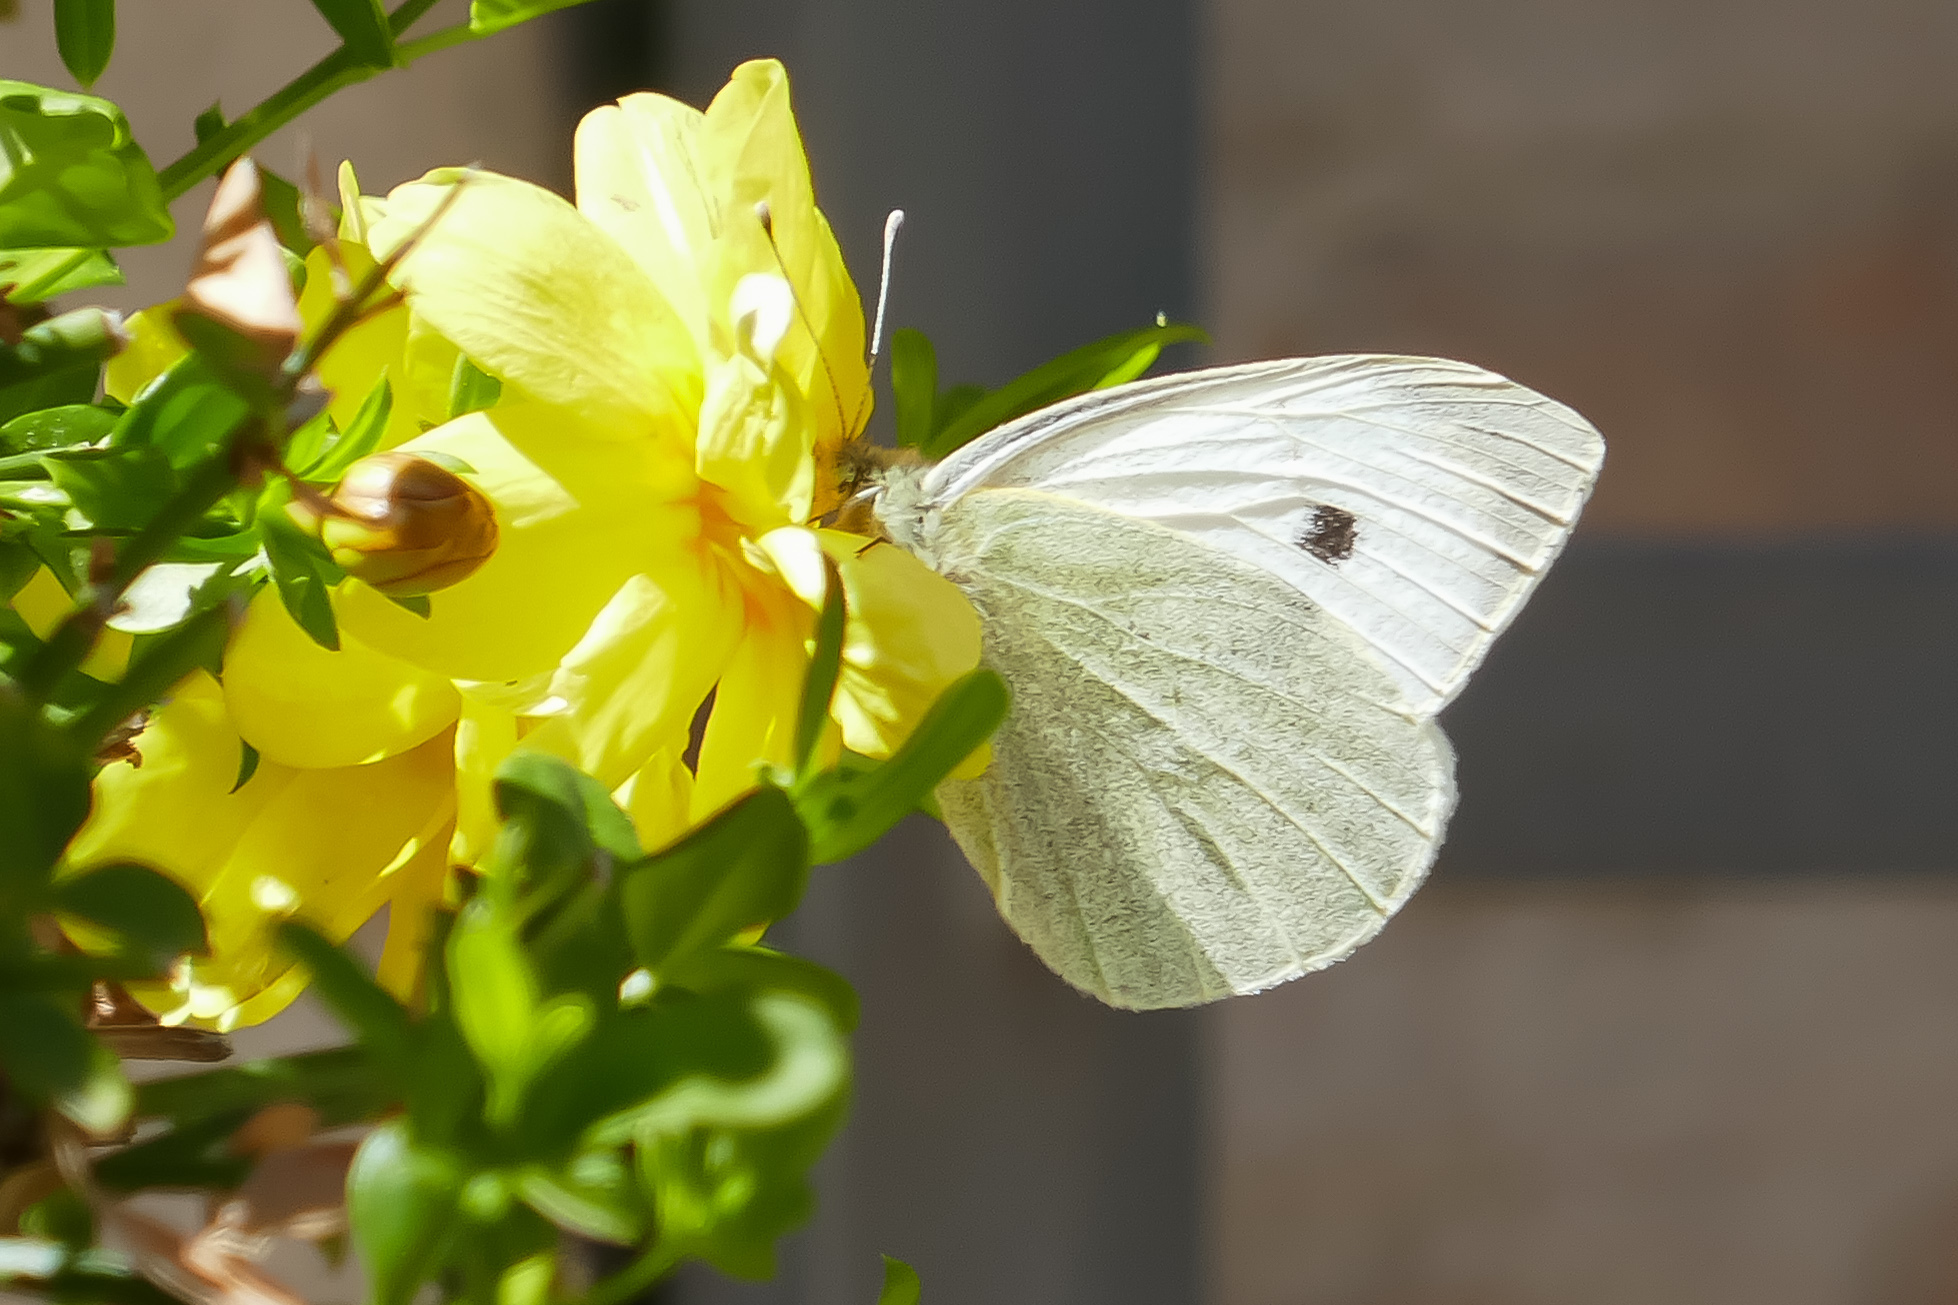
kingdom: Animalia
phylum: Arthropoda
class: Insecta
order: Lepidoptera
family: Pieridae
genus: Pieris
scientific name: Pieris brassicae
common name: Large white
